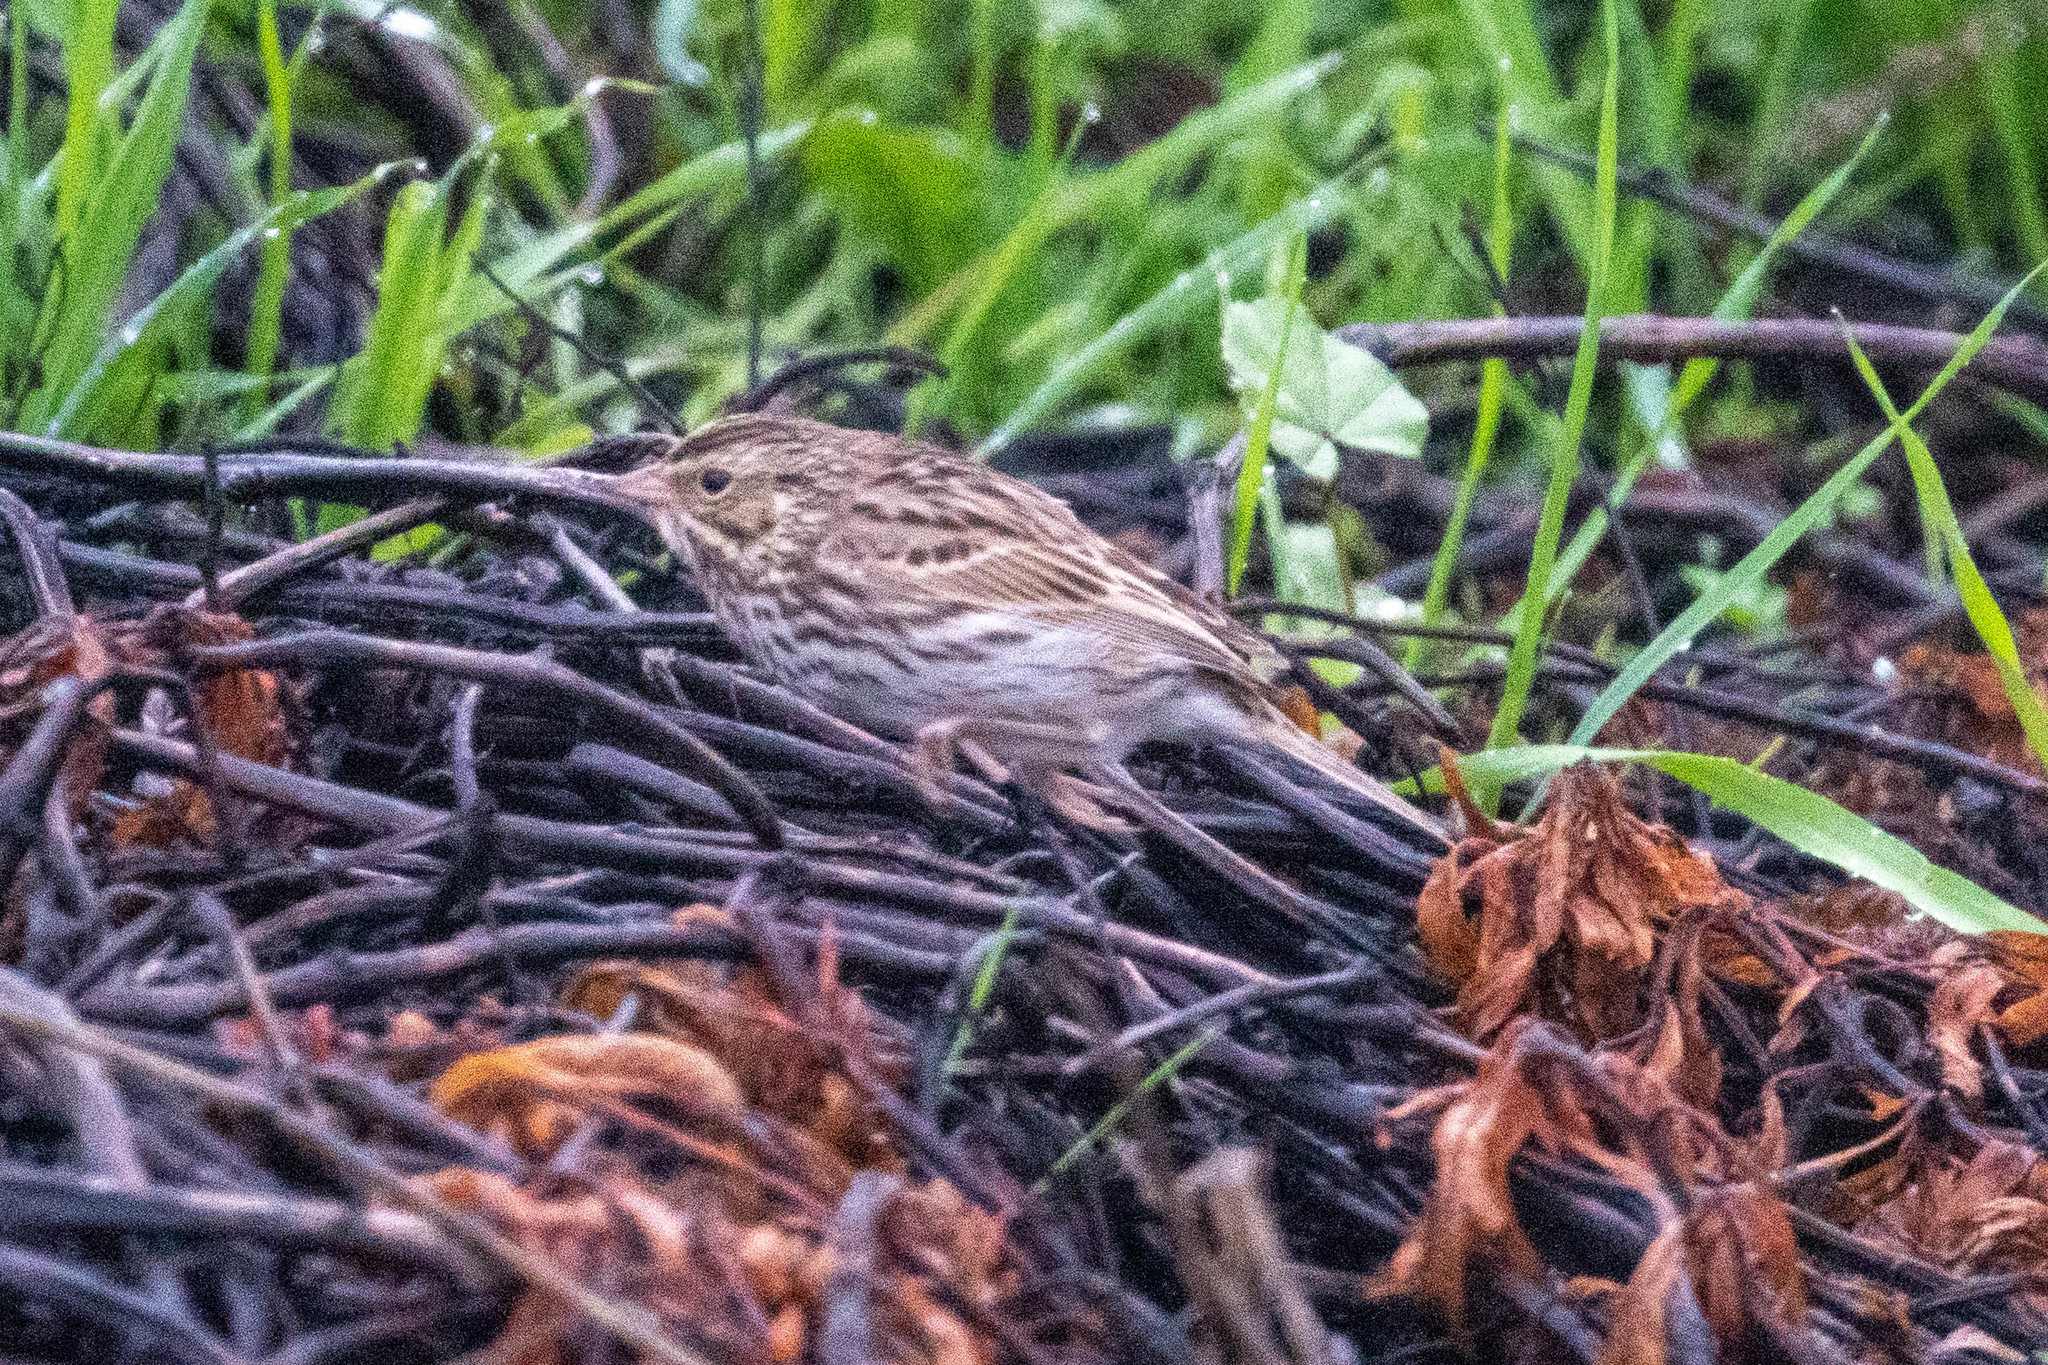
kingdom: Animalia
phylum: Chordata
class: Aves
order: Passeriformes
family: Passerellidae
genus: Passerculus
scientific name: Passerculus sandwichensis
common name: Savannah sparrow
